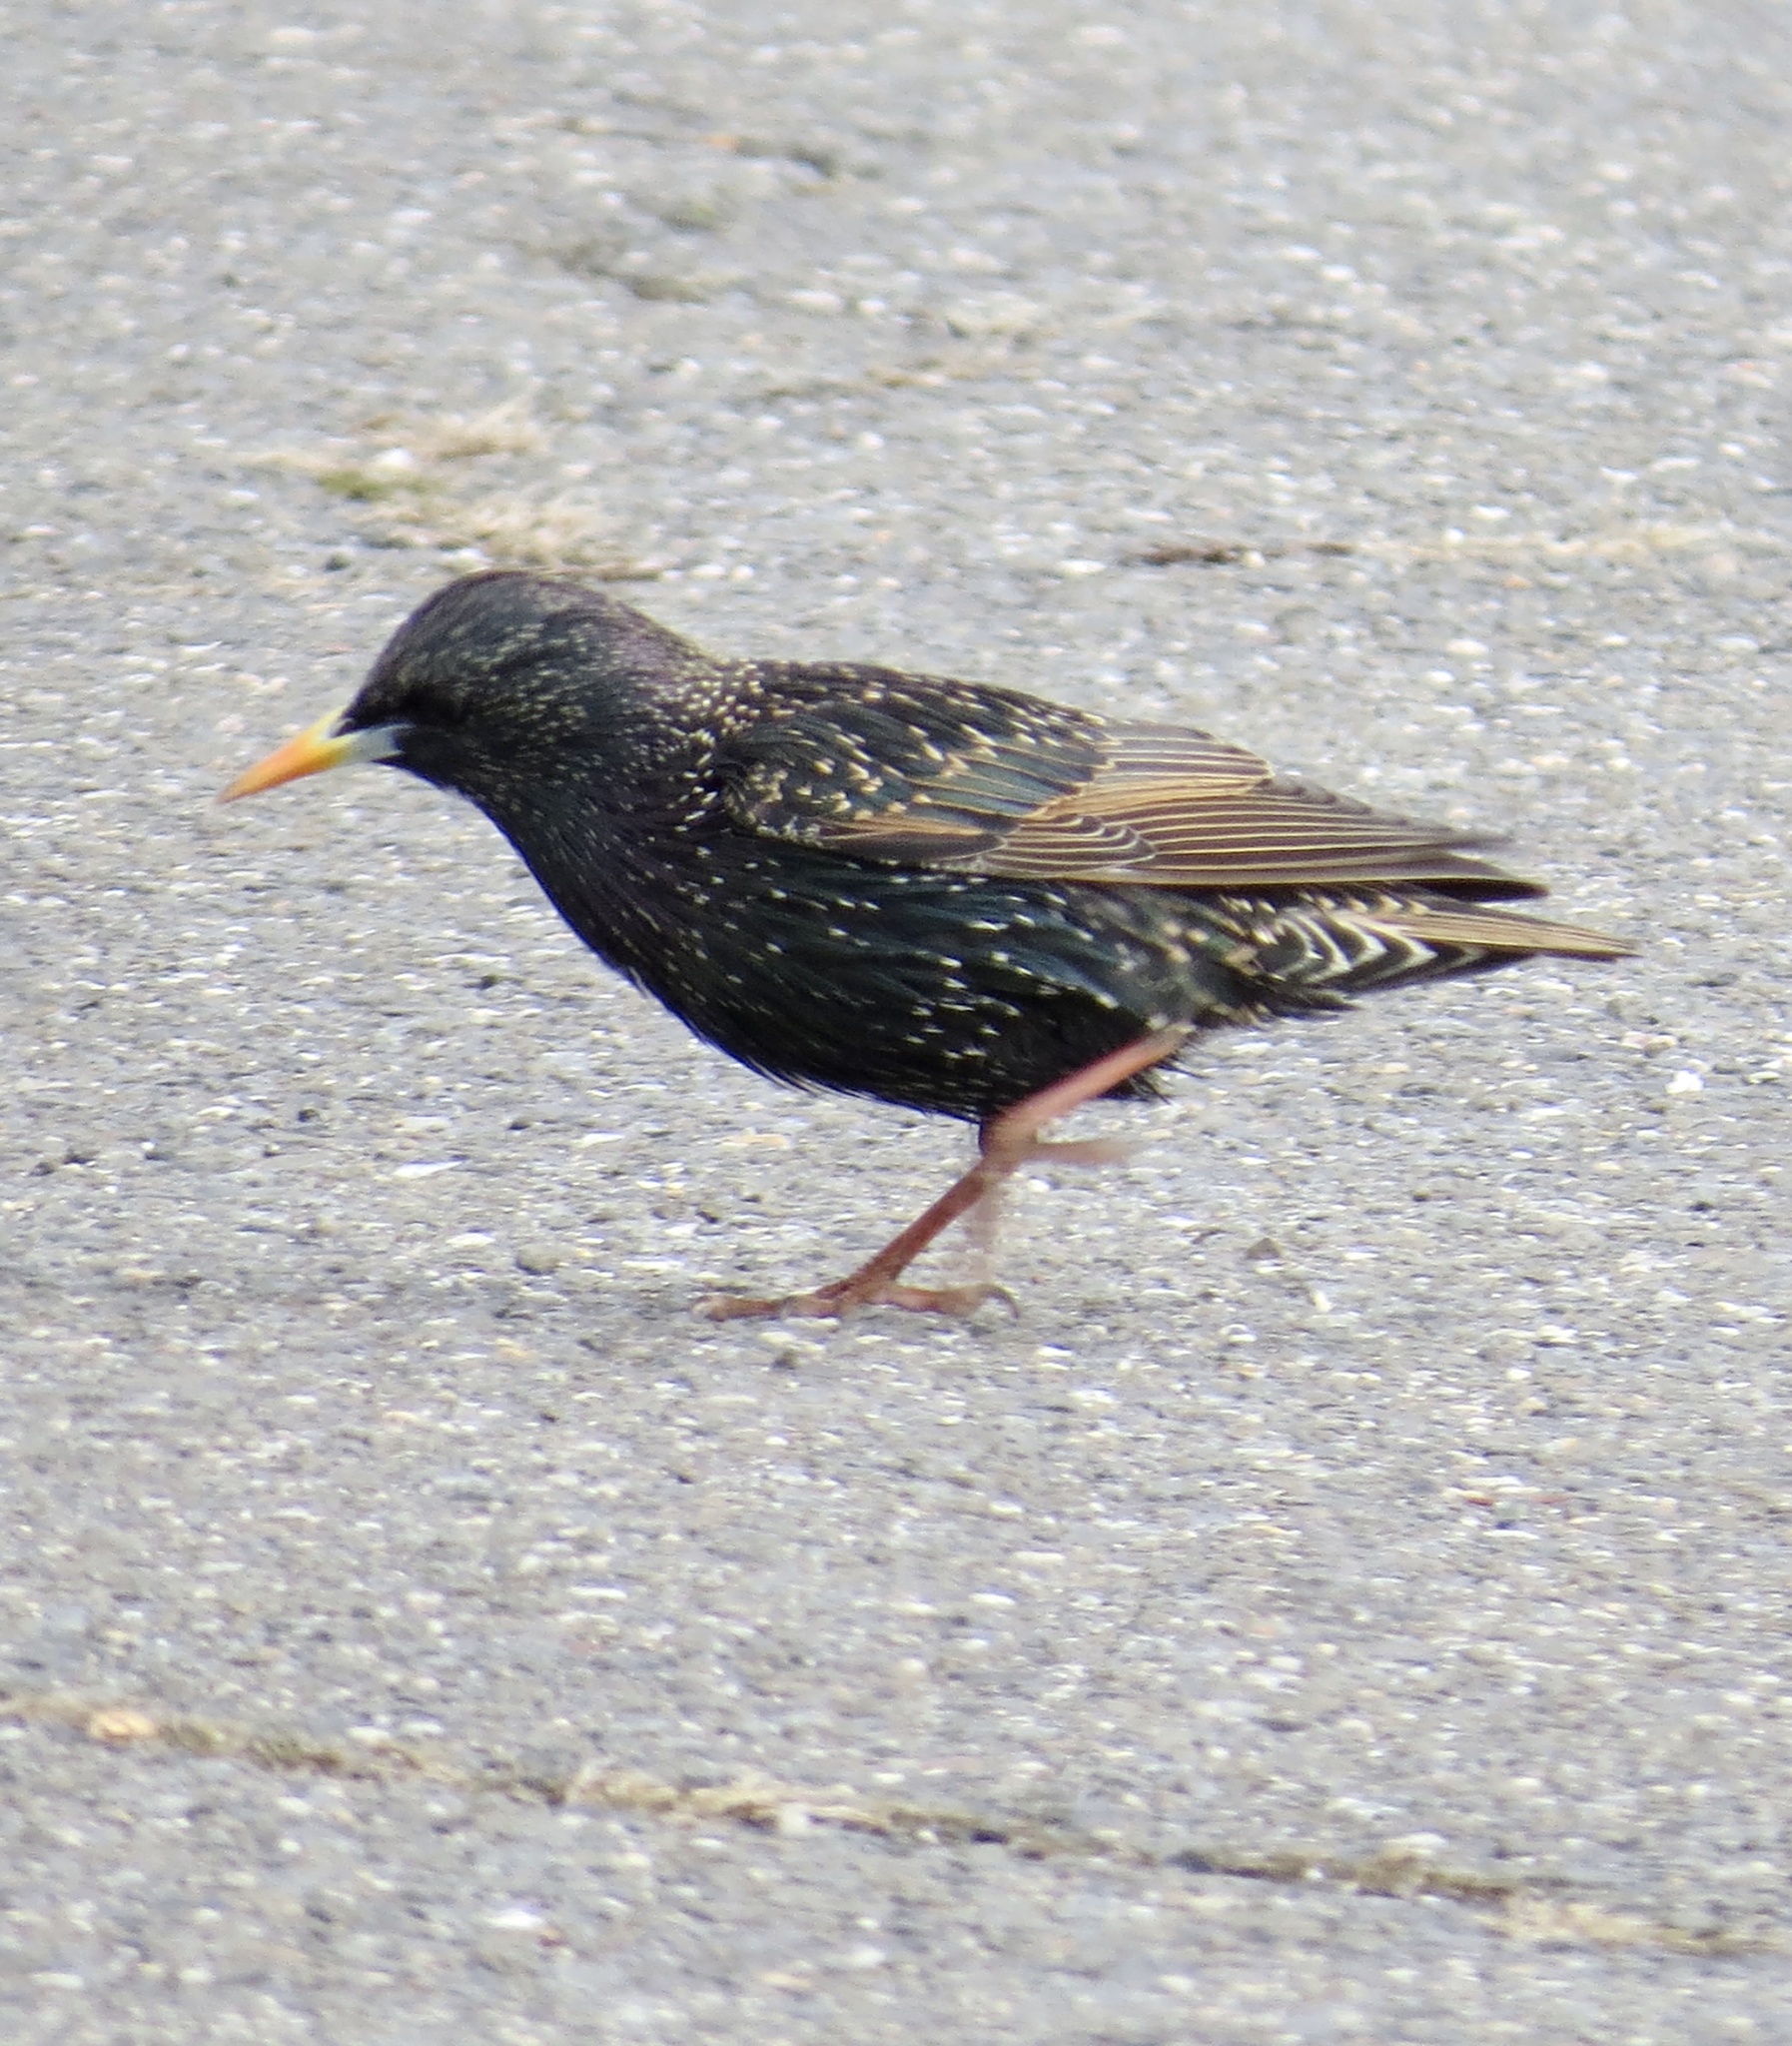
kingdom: Animalia
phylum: Chordata
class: Aves
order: Passeriformes
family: Sturnidae
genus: Sturnus
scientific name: Sturnus vulgaris
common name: Common starling
